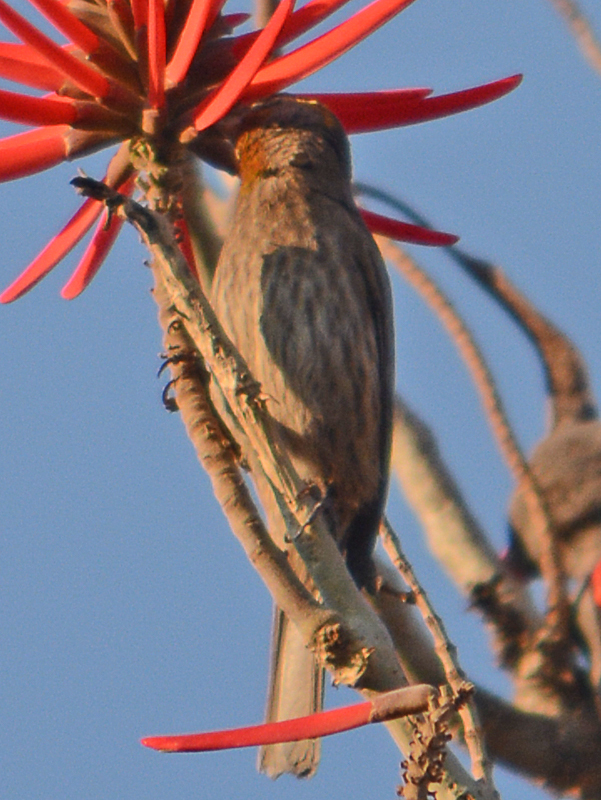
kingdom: Animalia
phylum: Chordata
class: Aves
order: Passeriformes
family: Fringillidae
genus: Haemorhous
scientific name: Haemorhous mexicanus
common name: House finch
